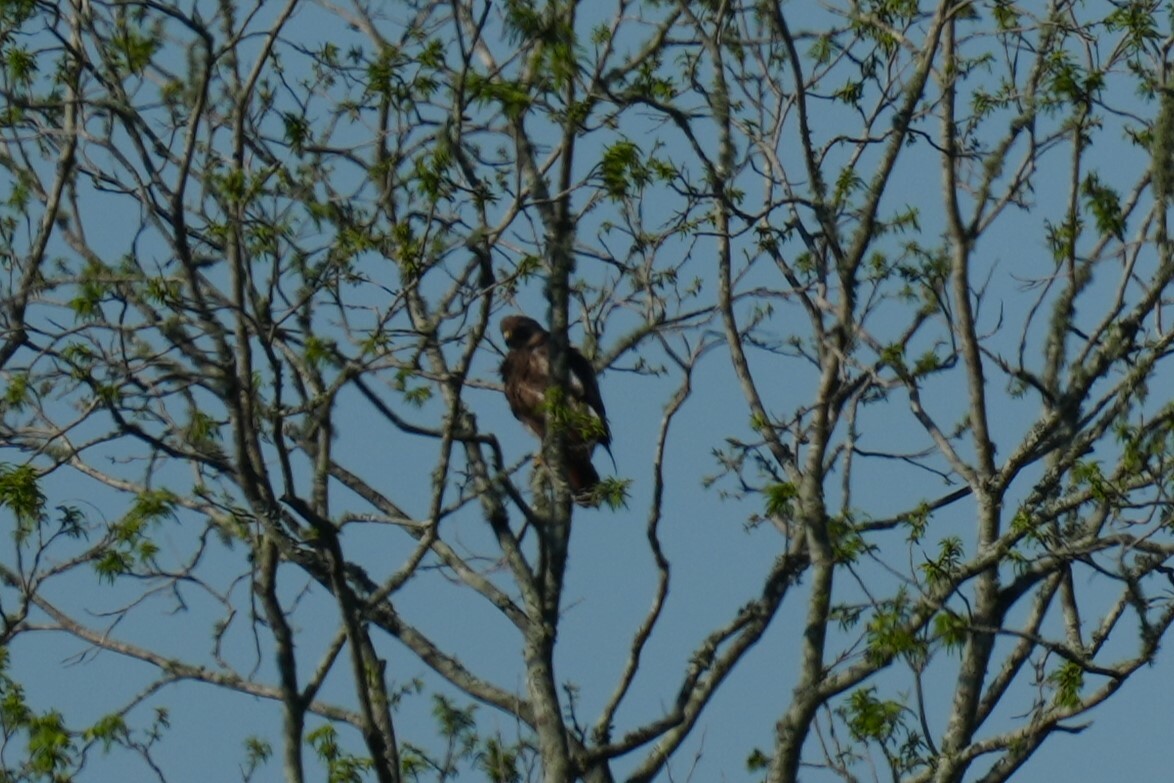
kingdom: Animalia
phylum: Chordata
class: Aves
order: Accipitriformes
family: Accipitridae
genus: Buteo
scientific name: Buteo jamaicensis
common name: Red-tailed hawk
